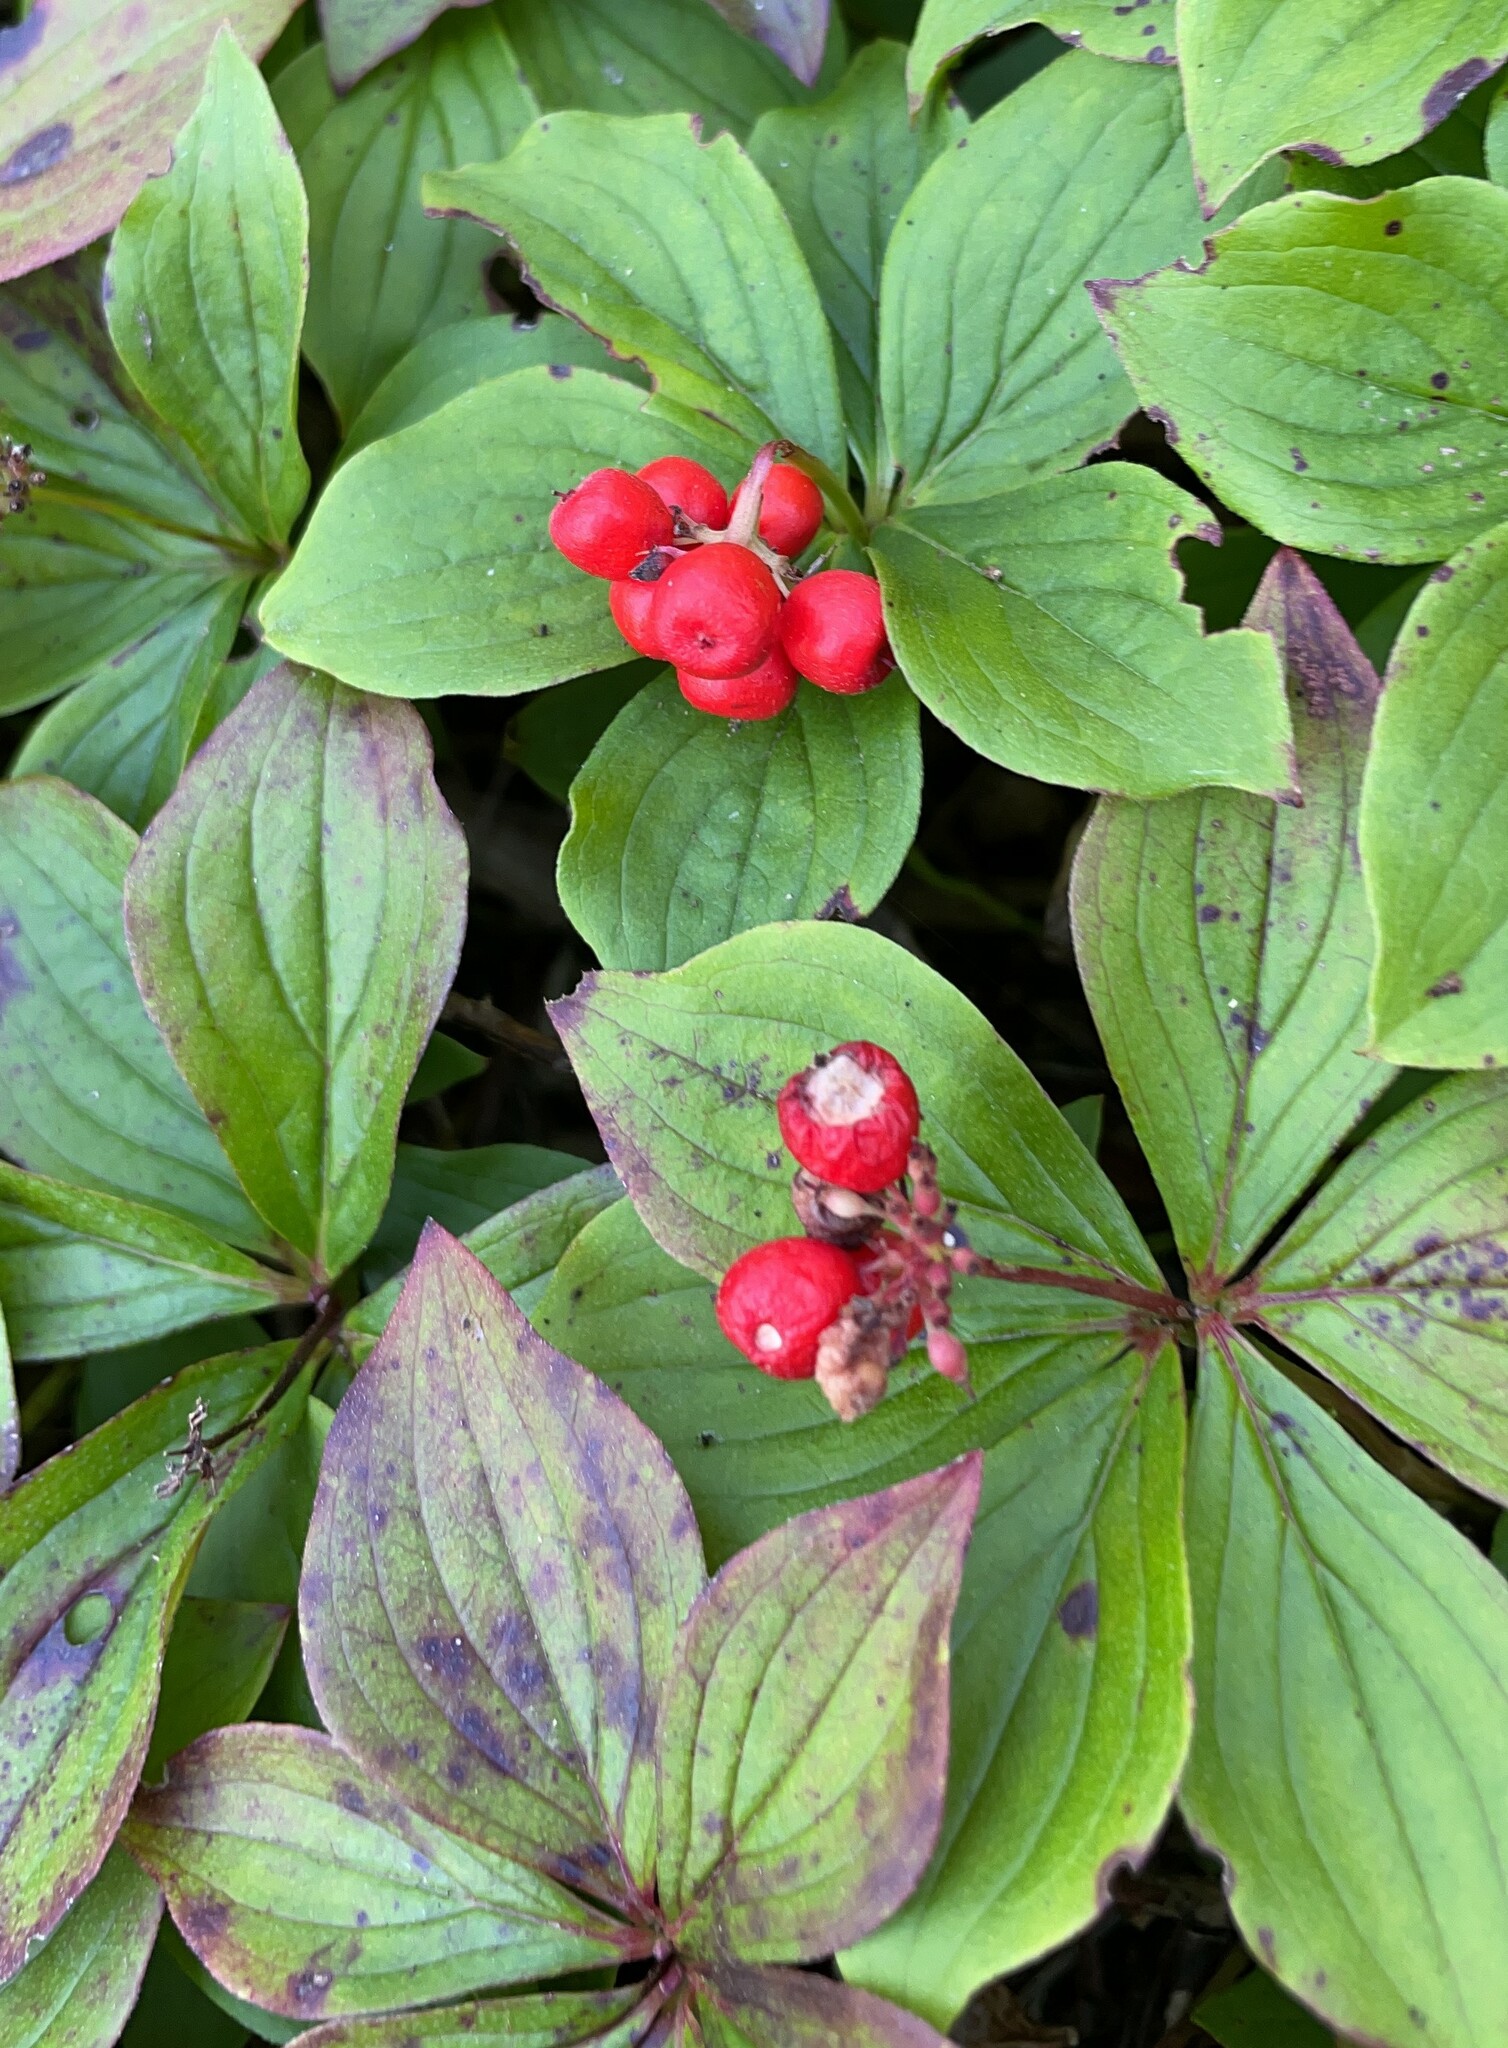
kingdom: Plantae
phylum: Tracheophyta
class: Magnoliopsida
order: Cornales
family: Cornaceae
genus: Cornus
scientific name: Cornus canadensis
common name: Creeping dogwood
